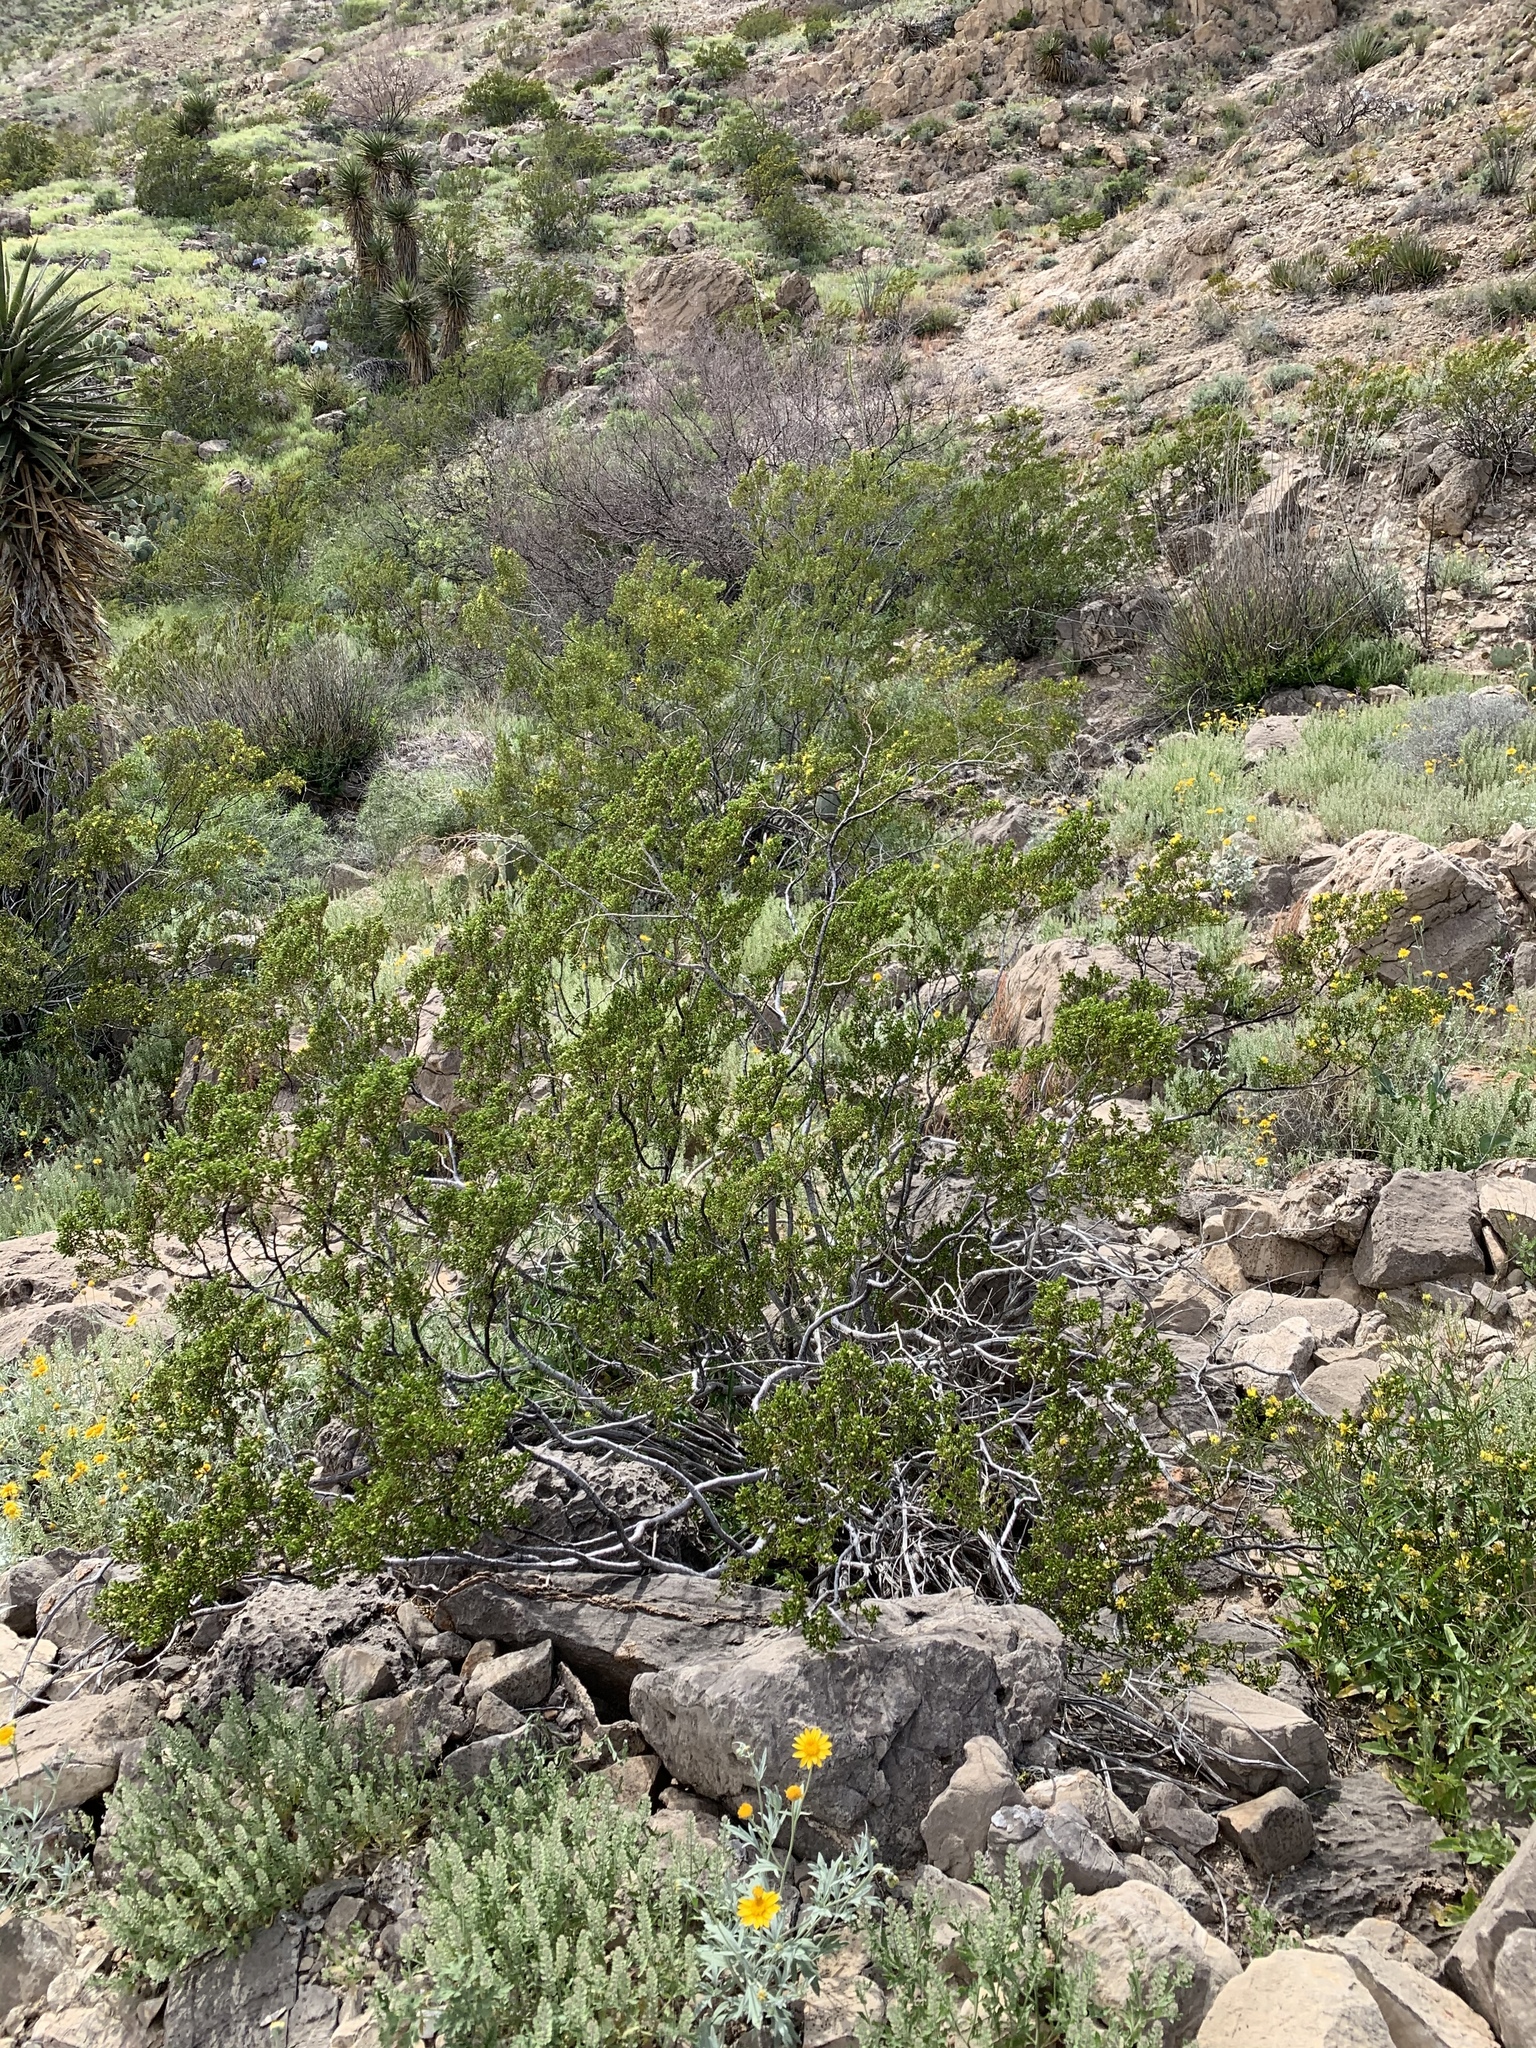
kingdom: Plantae
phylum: Tracheophyta
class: Magnoliopsida
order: Zygophyllales
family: Zygophyllaceae
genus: Larrea
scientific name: Larrea tridentata
